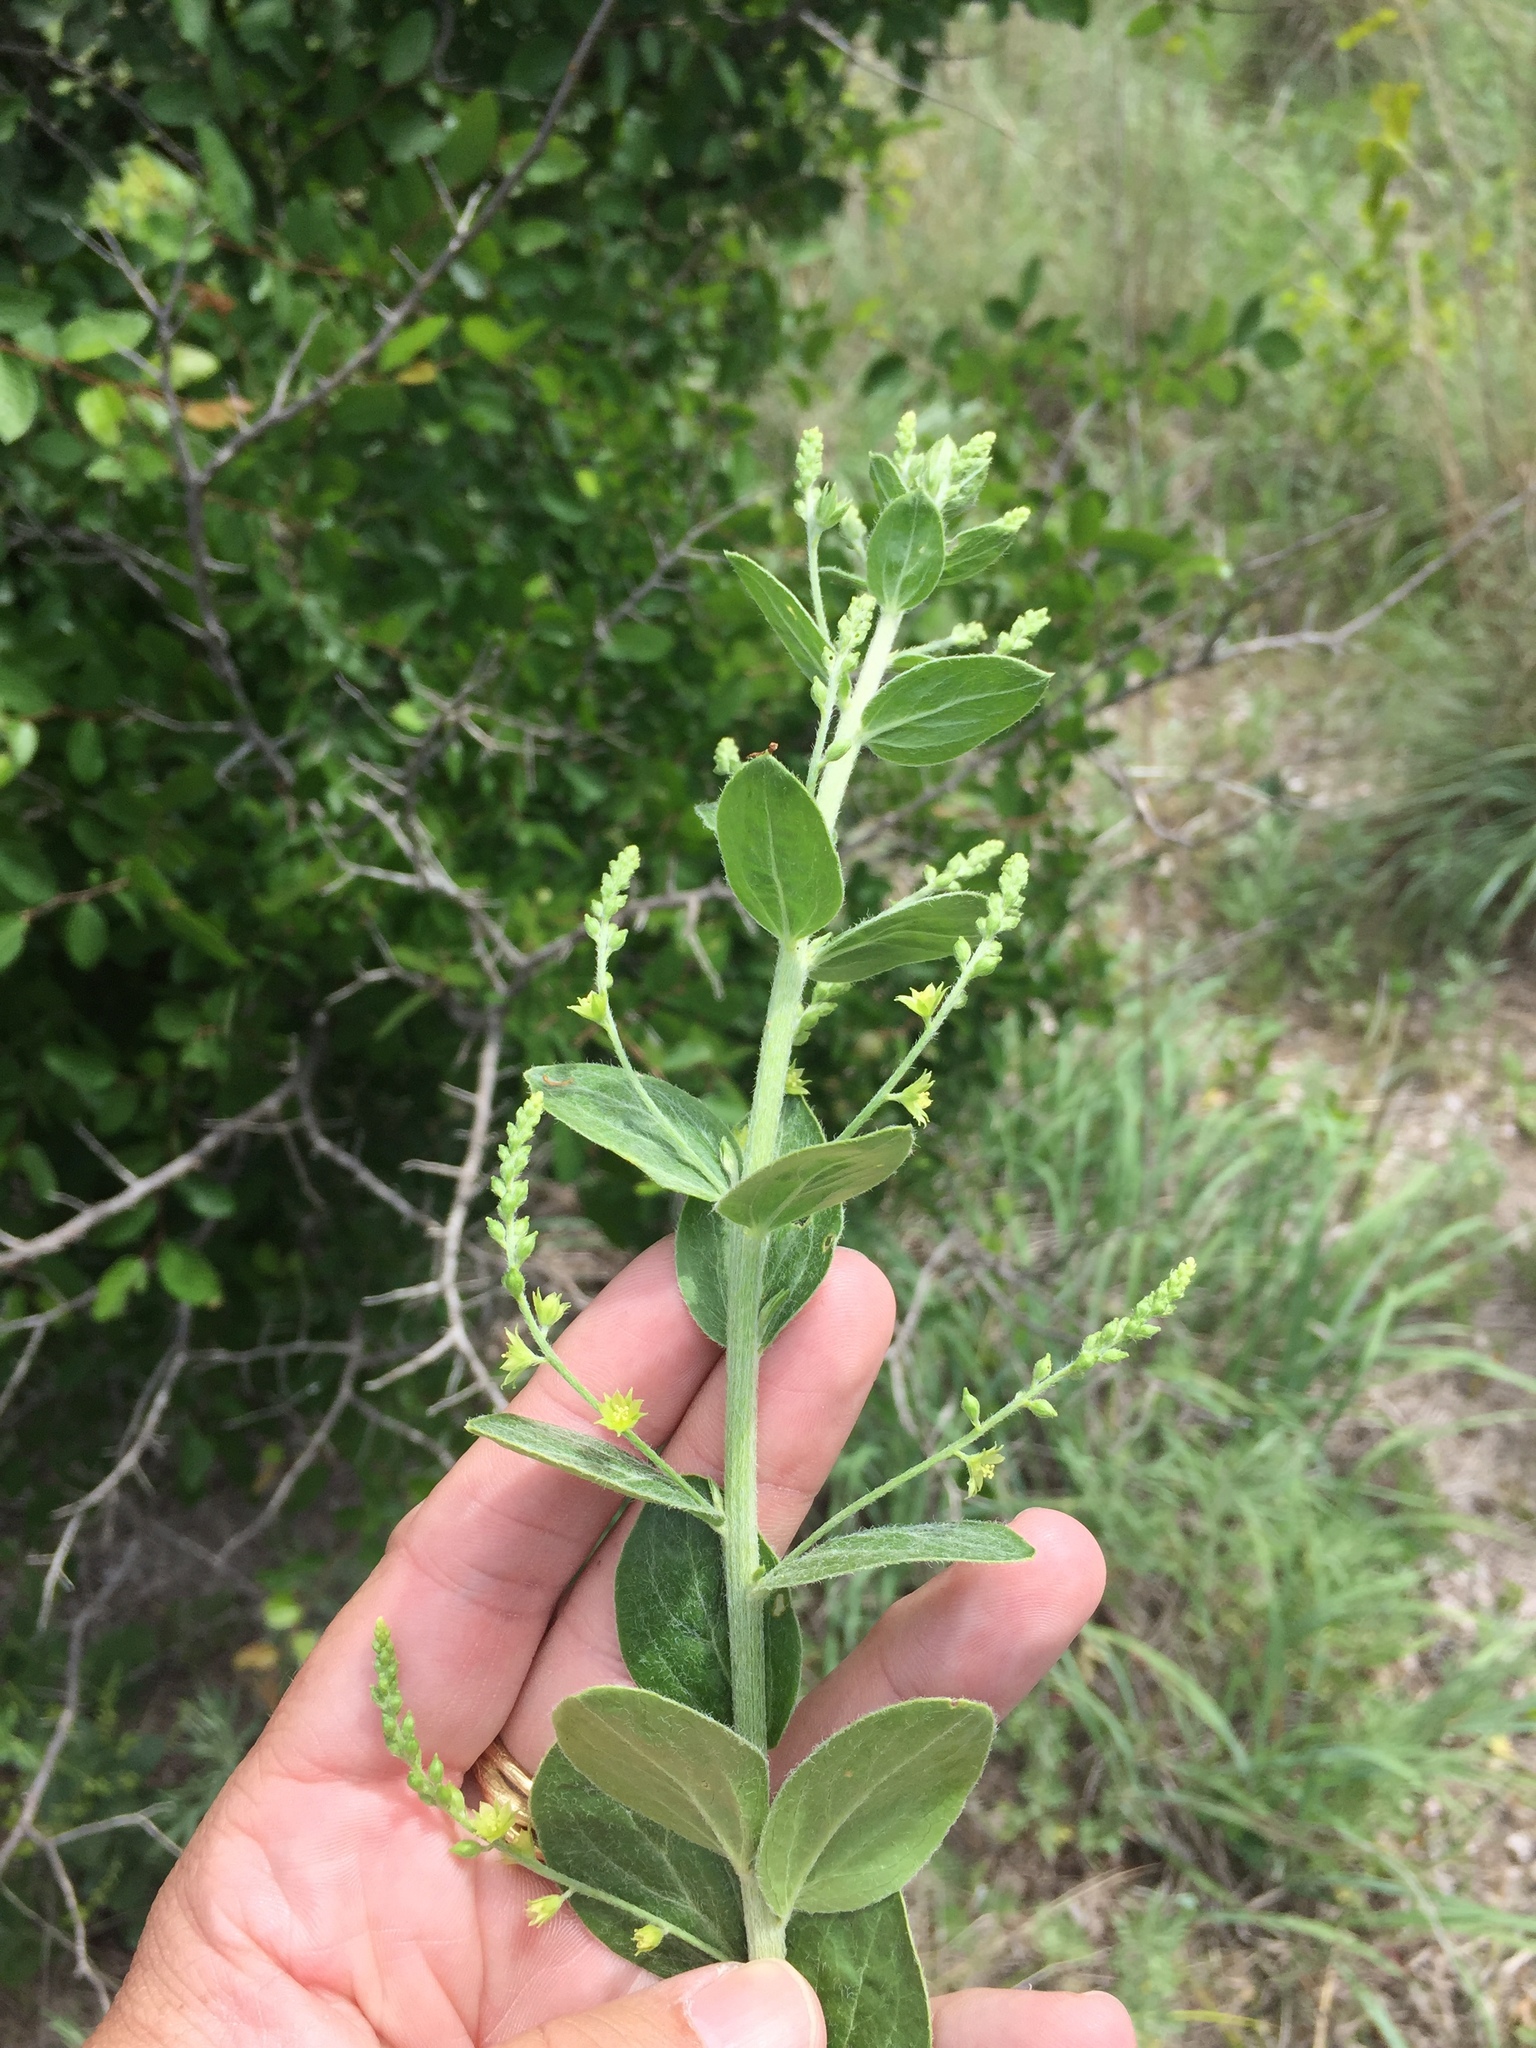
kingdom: Plantae
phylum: Tracheophyta
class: Magnoliopsida
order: Malpighiales
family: Euphorbiaceae
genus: Ditaxis
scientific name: Ditaxis mercurialina
